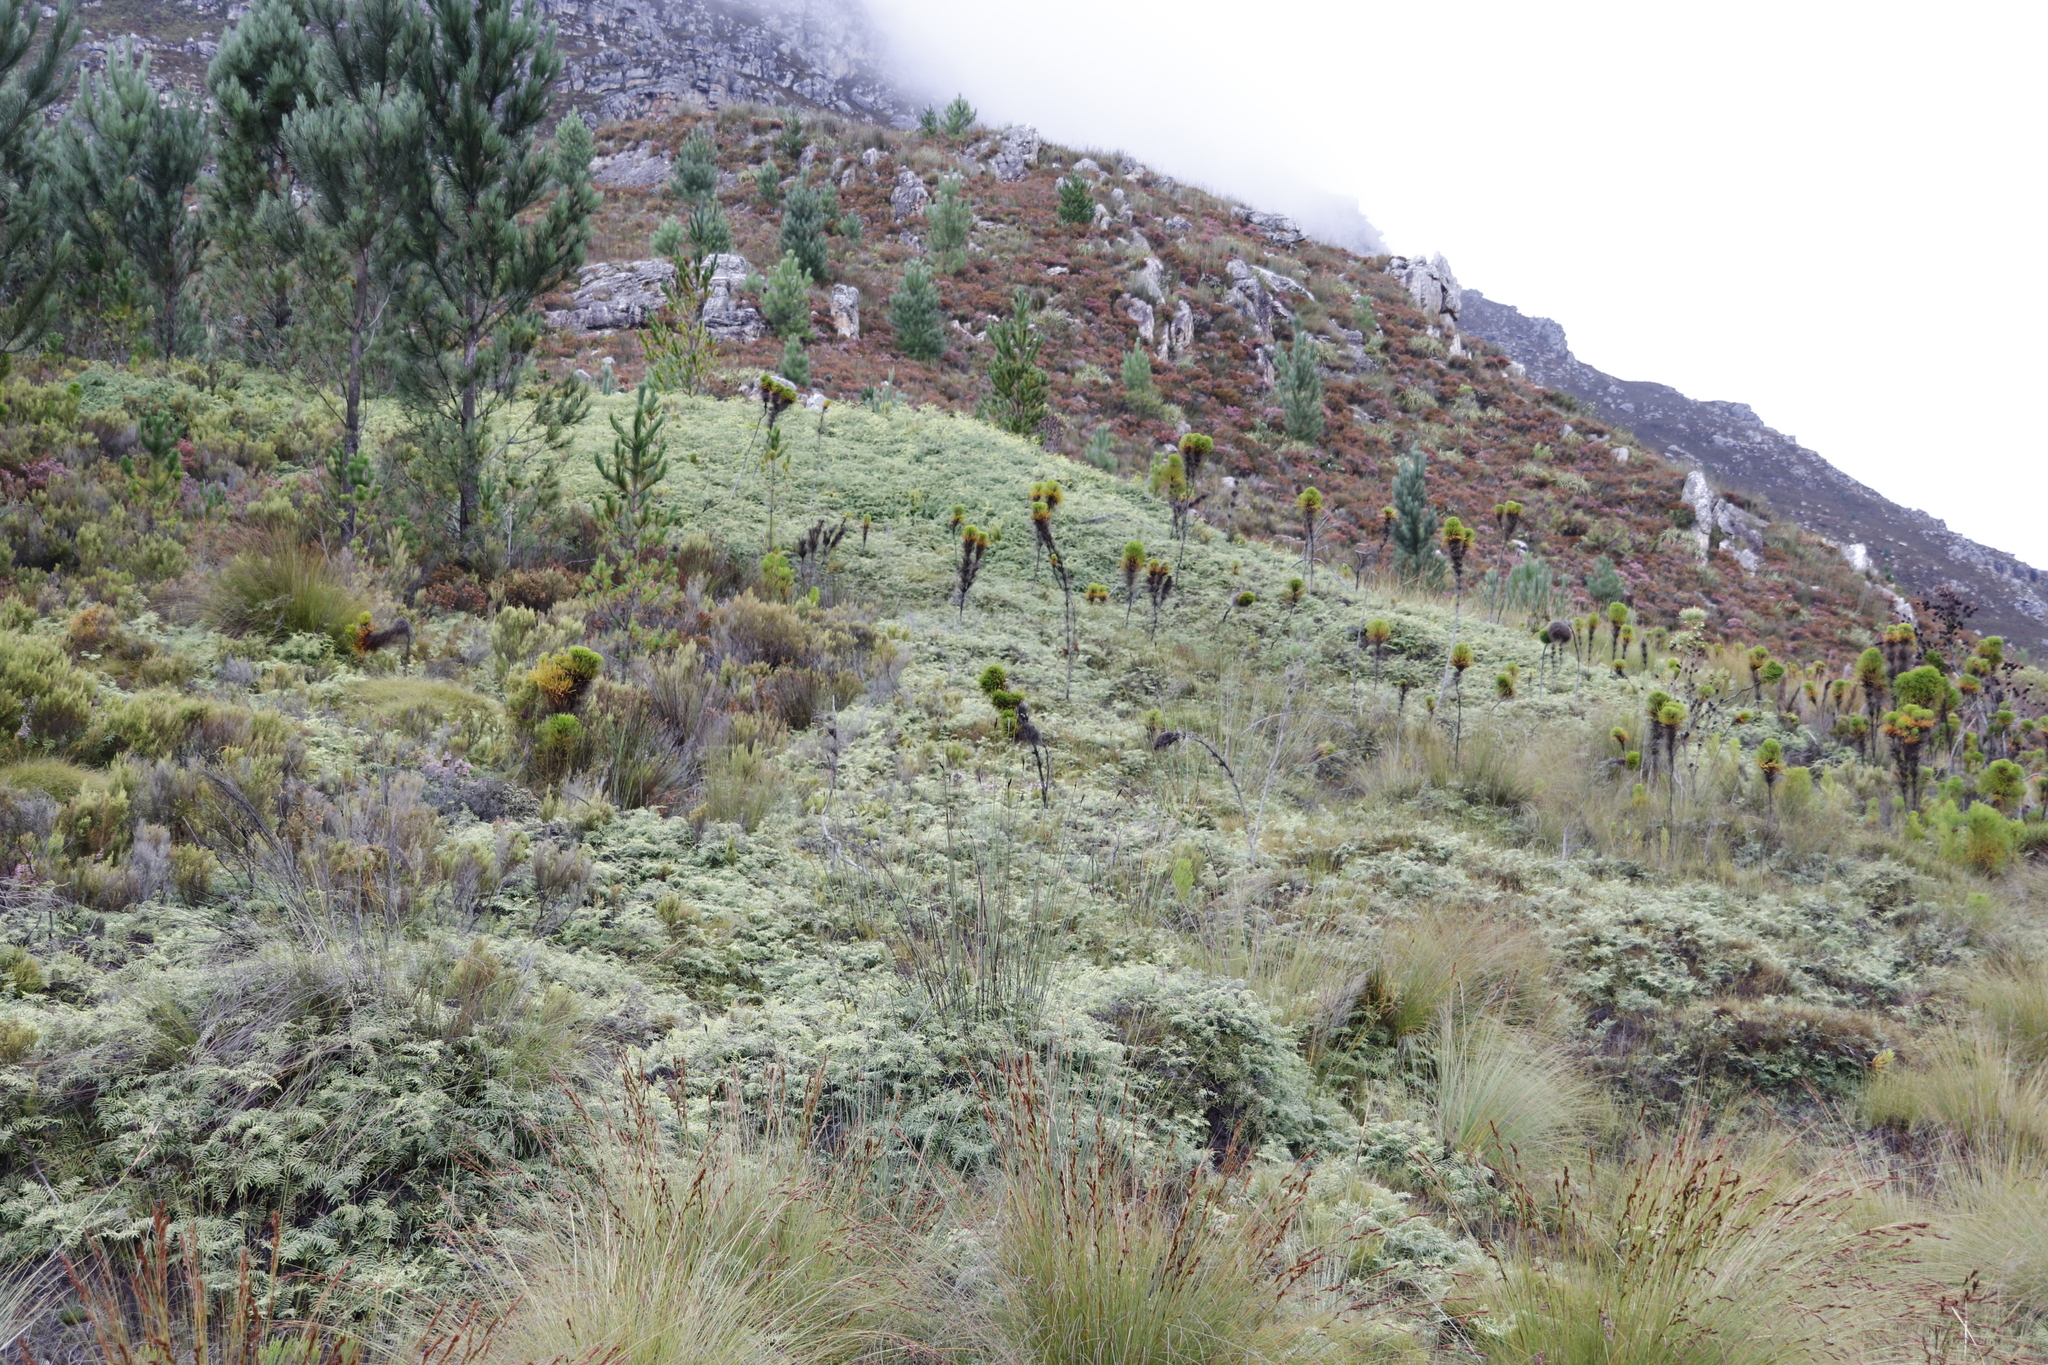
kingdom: Plantae
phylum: Tracheophyta
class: Polypodiopsida
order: Gleicheniales
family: Gleicheniaceae
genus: Gleichenia
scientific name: Gleichenia polypodioides
